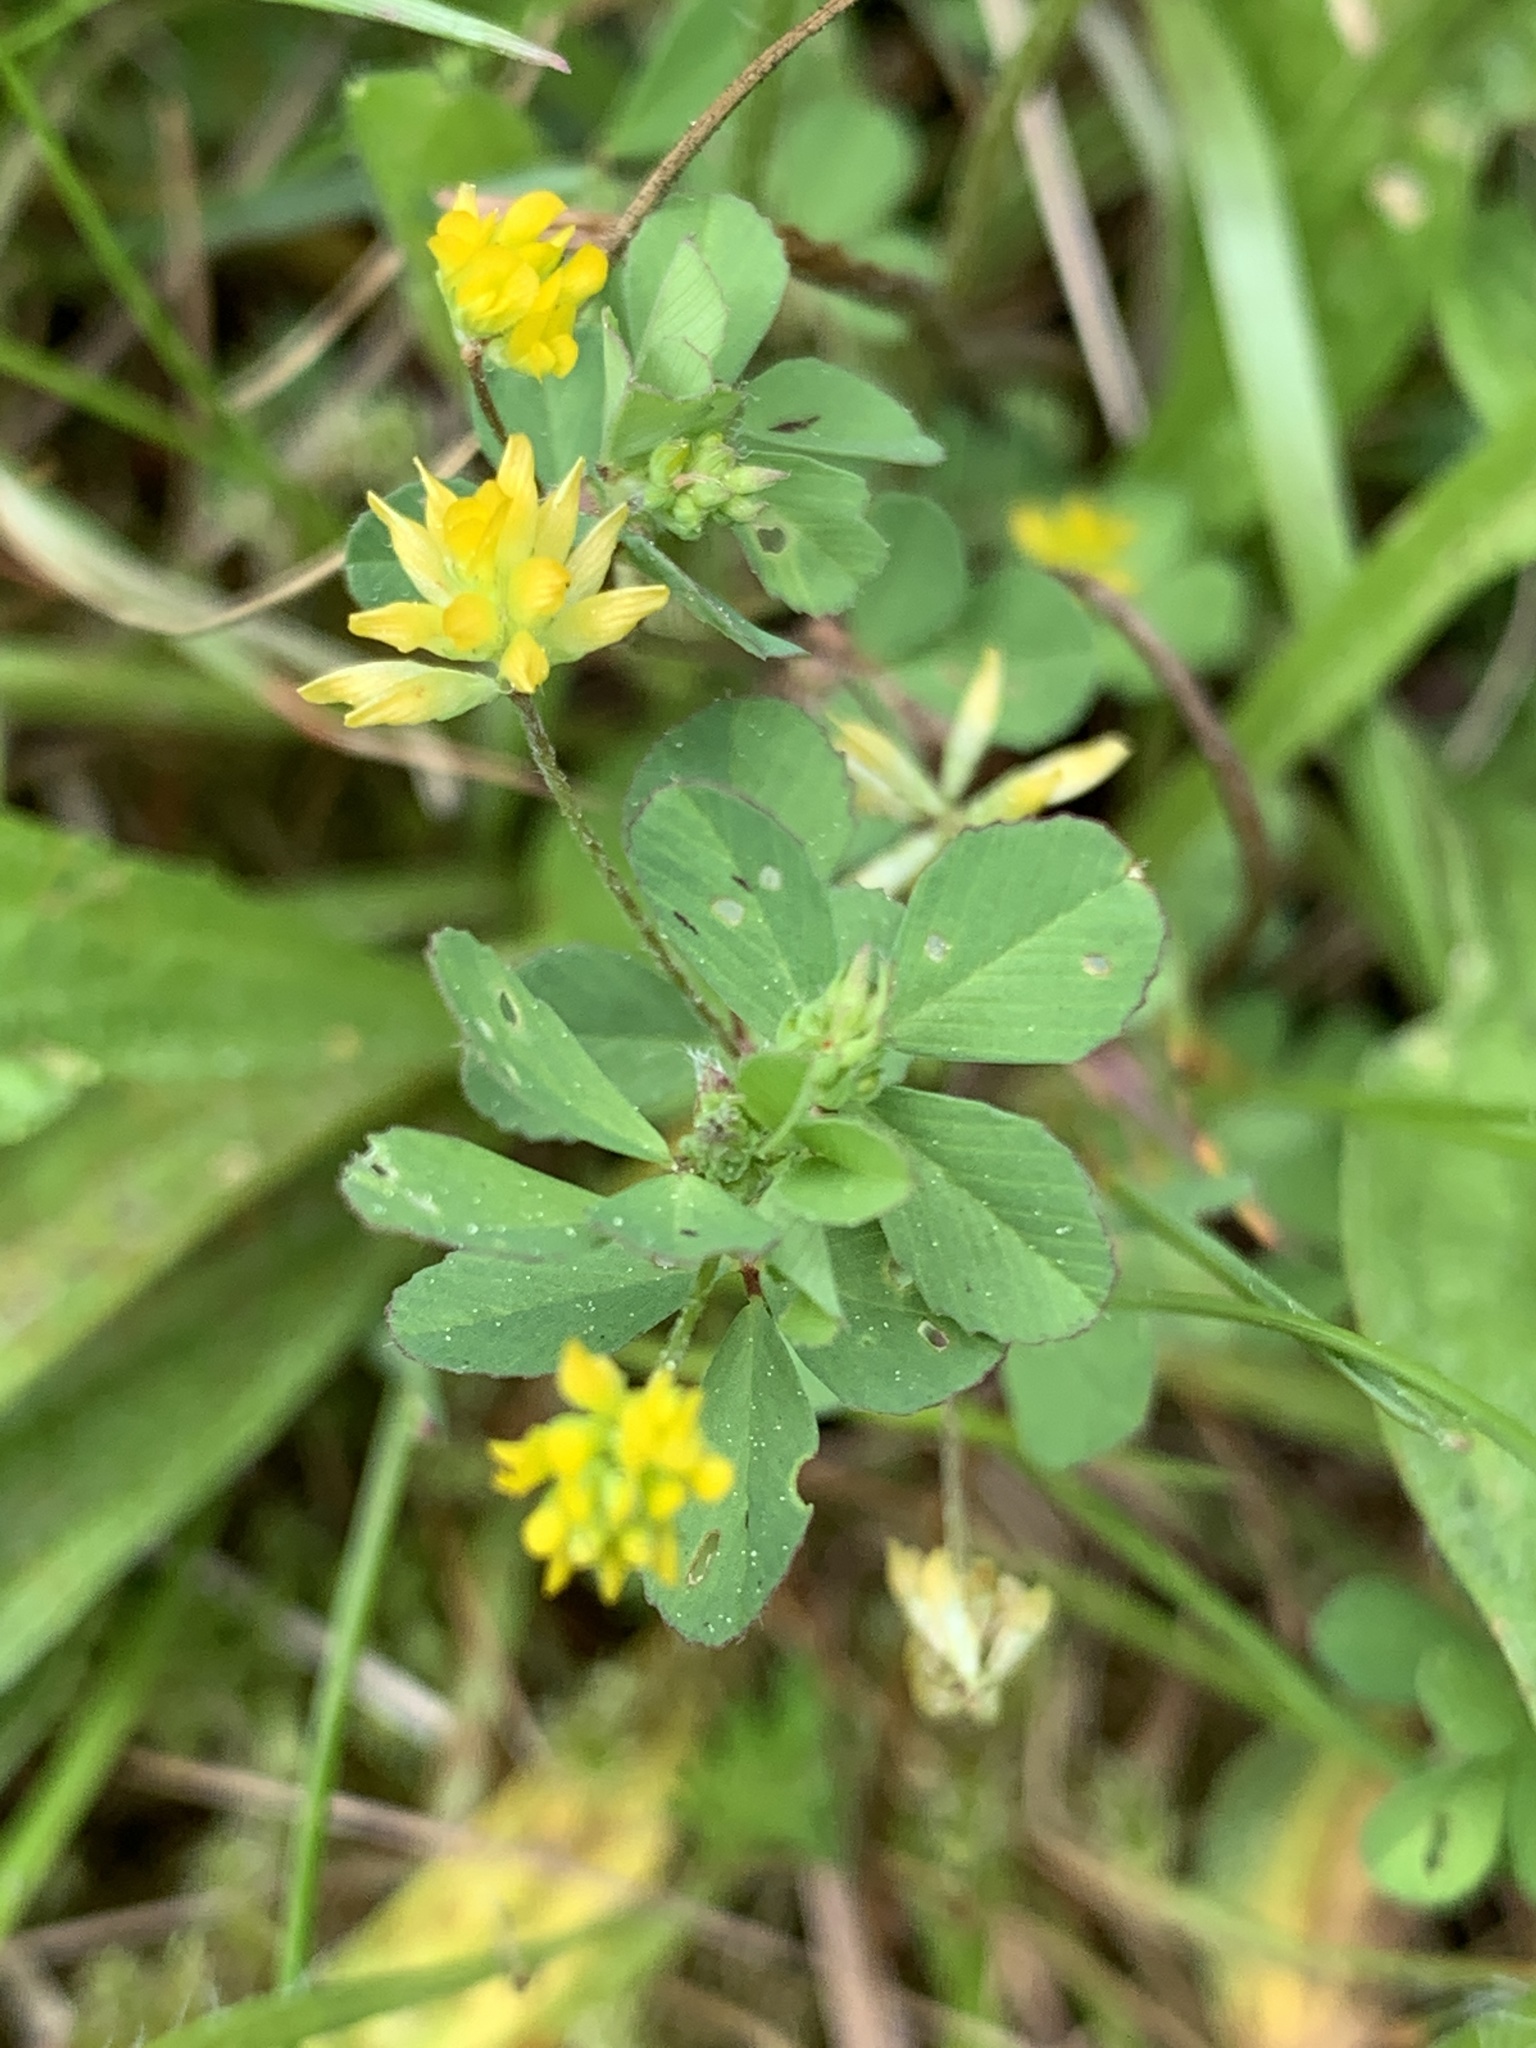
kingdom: Plantae
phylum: Tracheophyta
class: Magnoliopsida
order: Fabales
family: Fabaceae
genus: Trifolium
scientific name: Trifolium dubium
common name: Suckling clover
